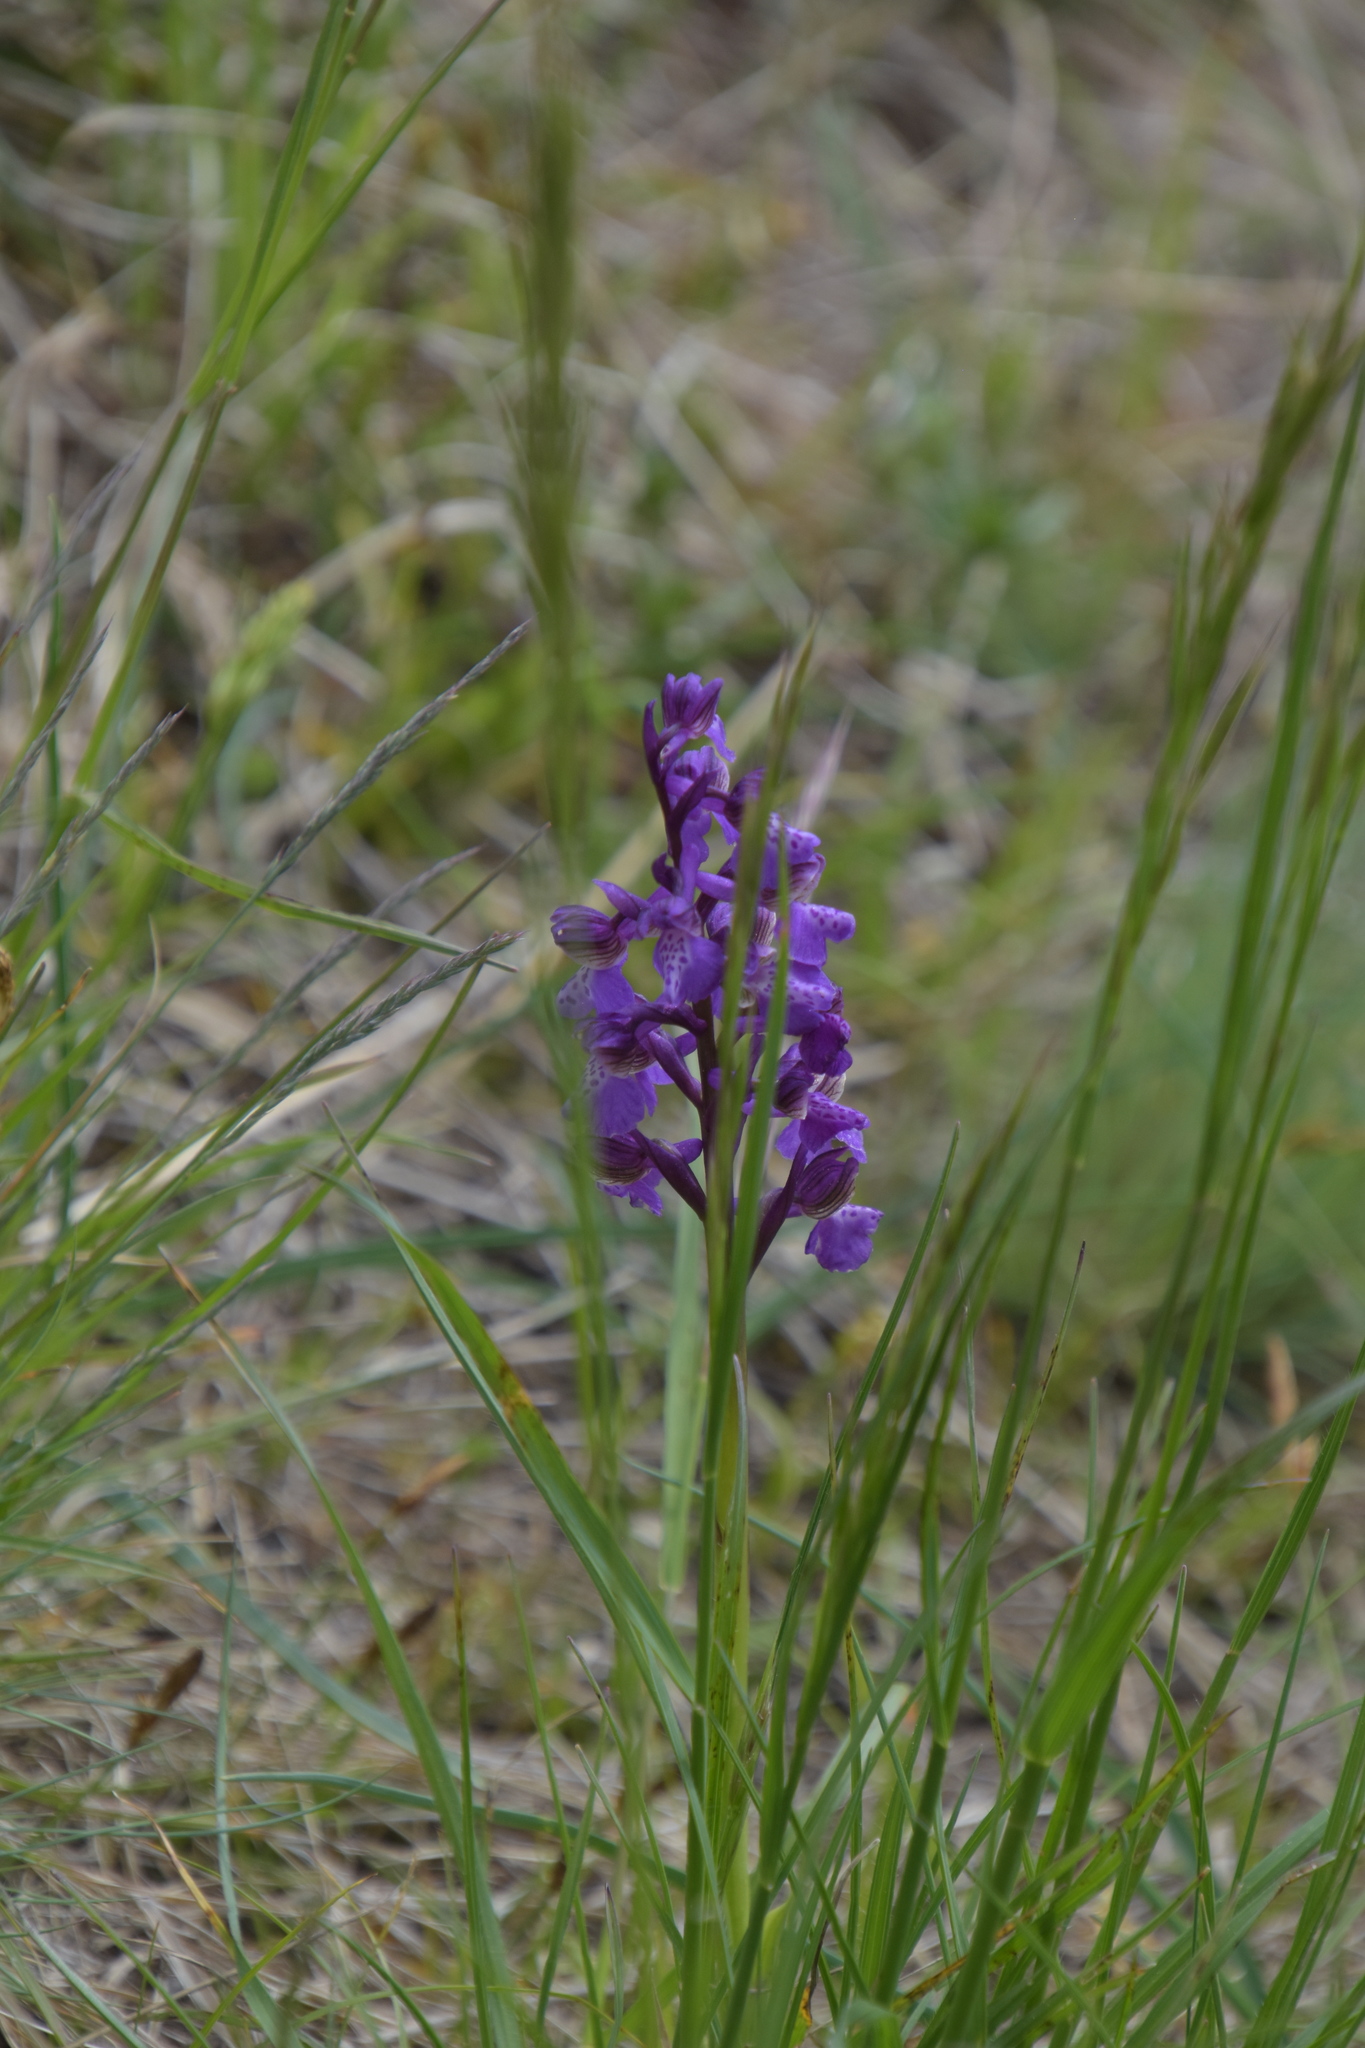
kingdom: Plantae
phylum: Tracheophyta
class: Liliopsida
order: Asparagales
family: Orchidaceae
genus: Anacamptis
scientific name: Anacamptis morio
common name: Green-winged orchid
